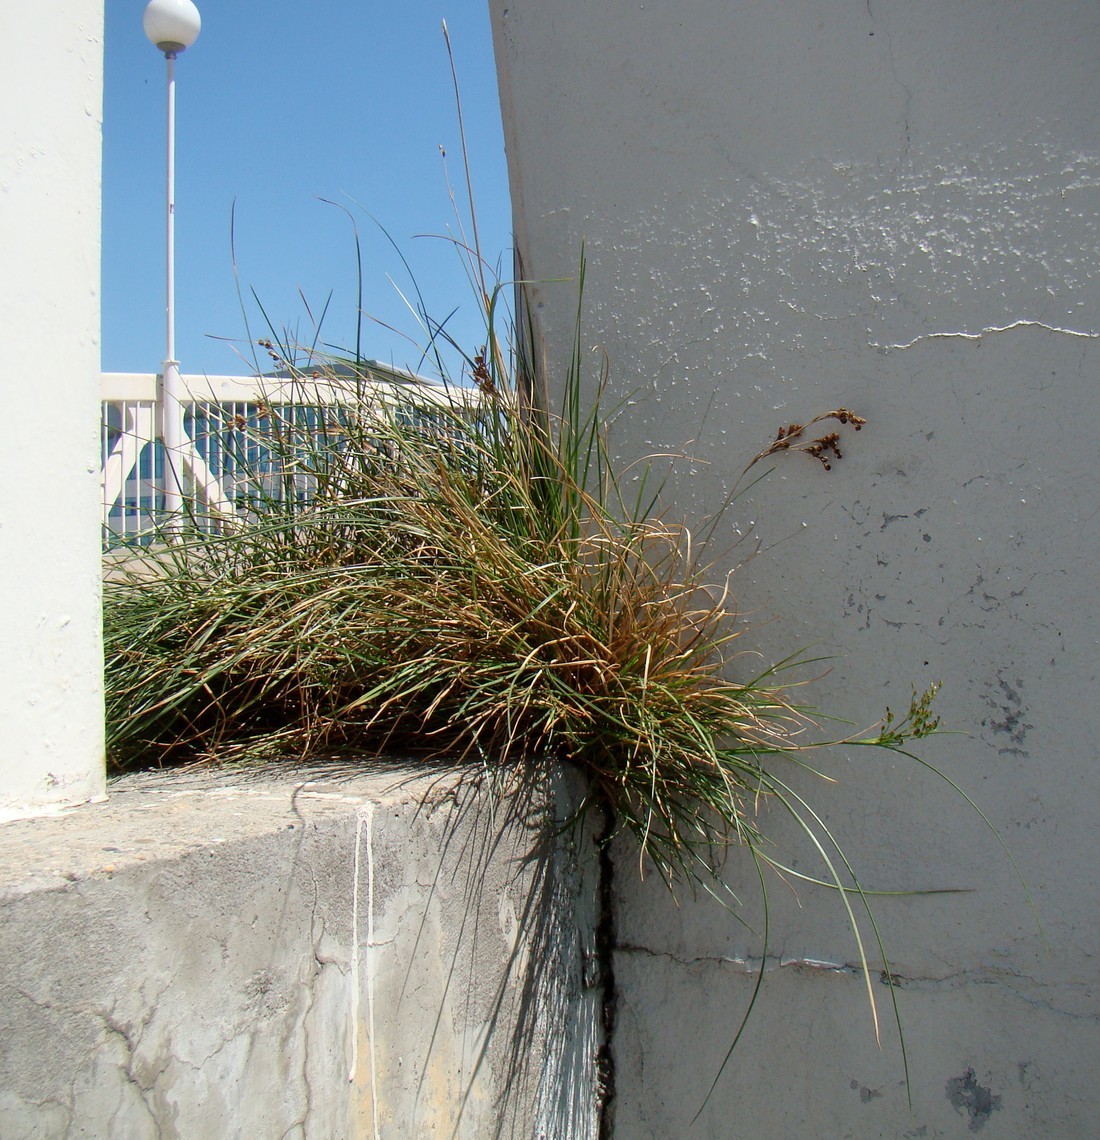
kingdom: Plantae
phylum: Tracheophyta
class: Liliopsida
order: Poales
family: Juncaceae
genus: Juncus
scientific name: Juncus gerardi
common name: Saltmarsh rush
